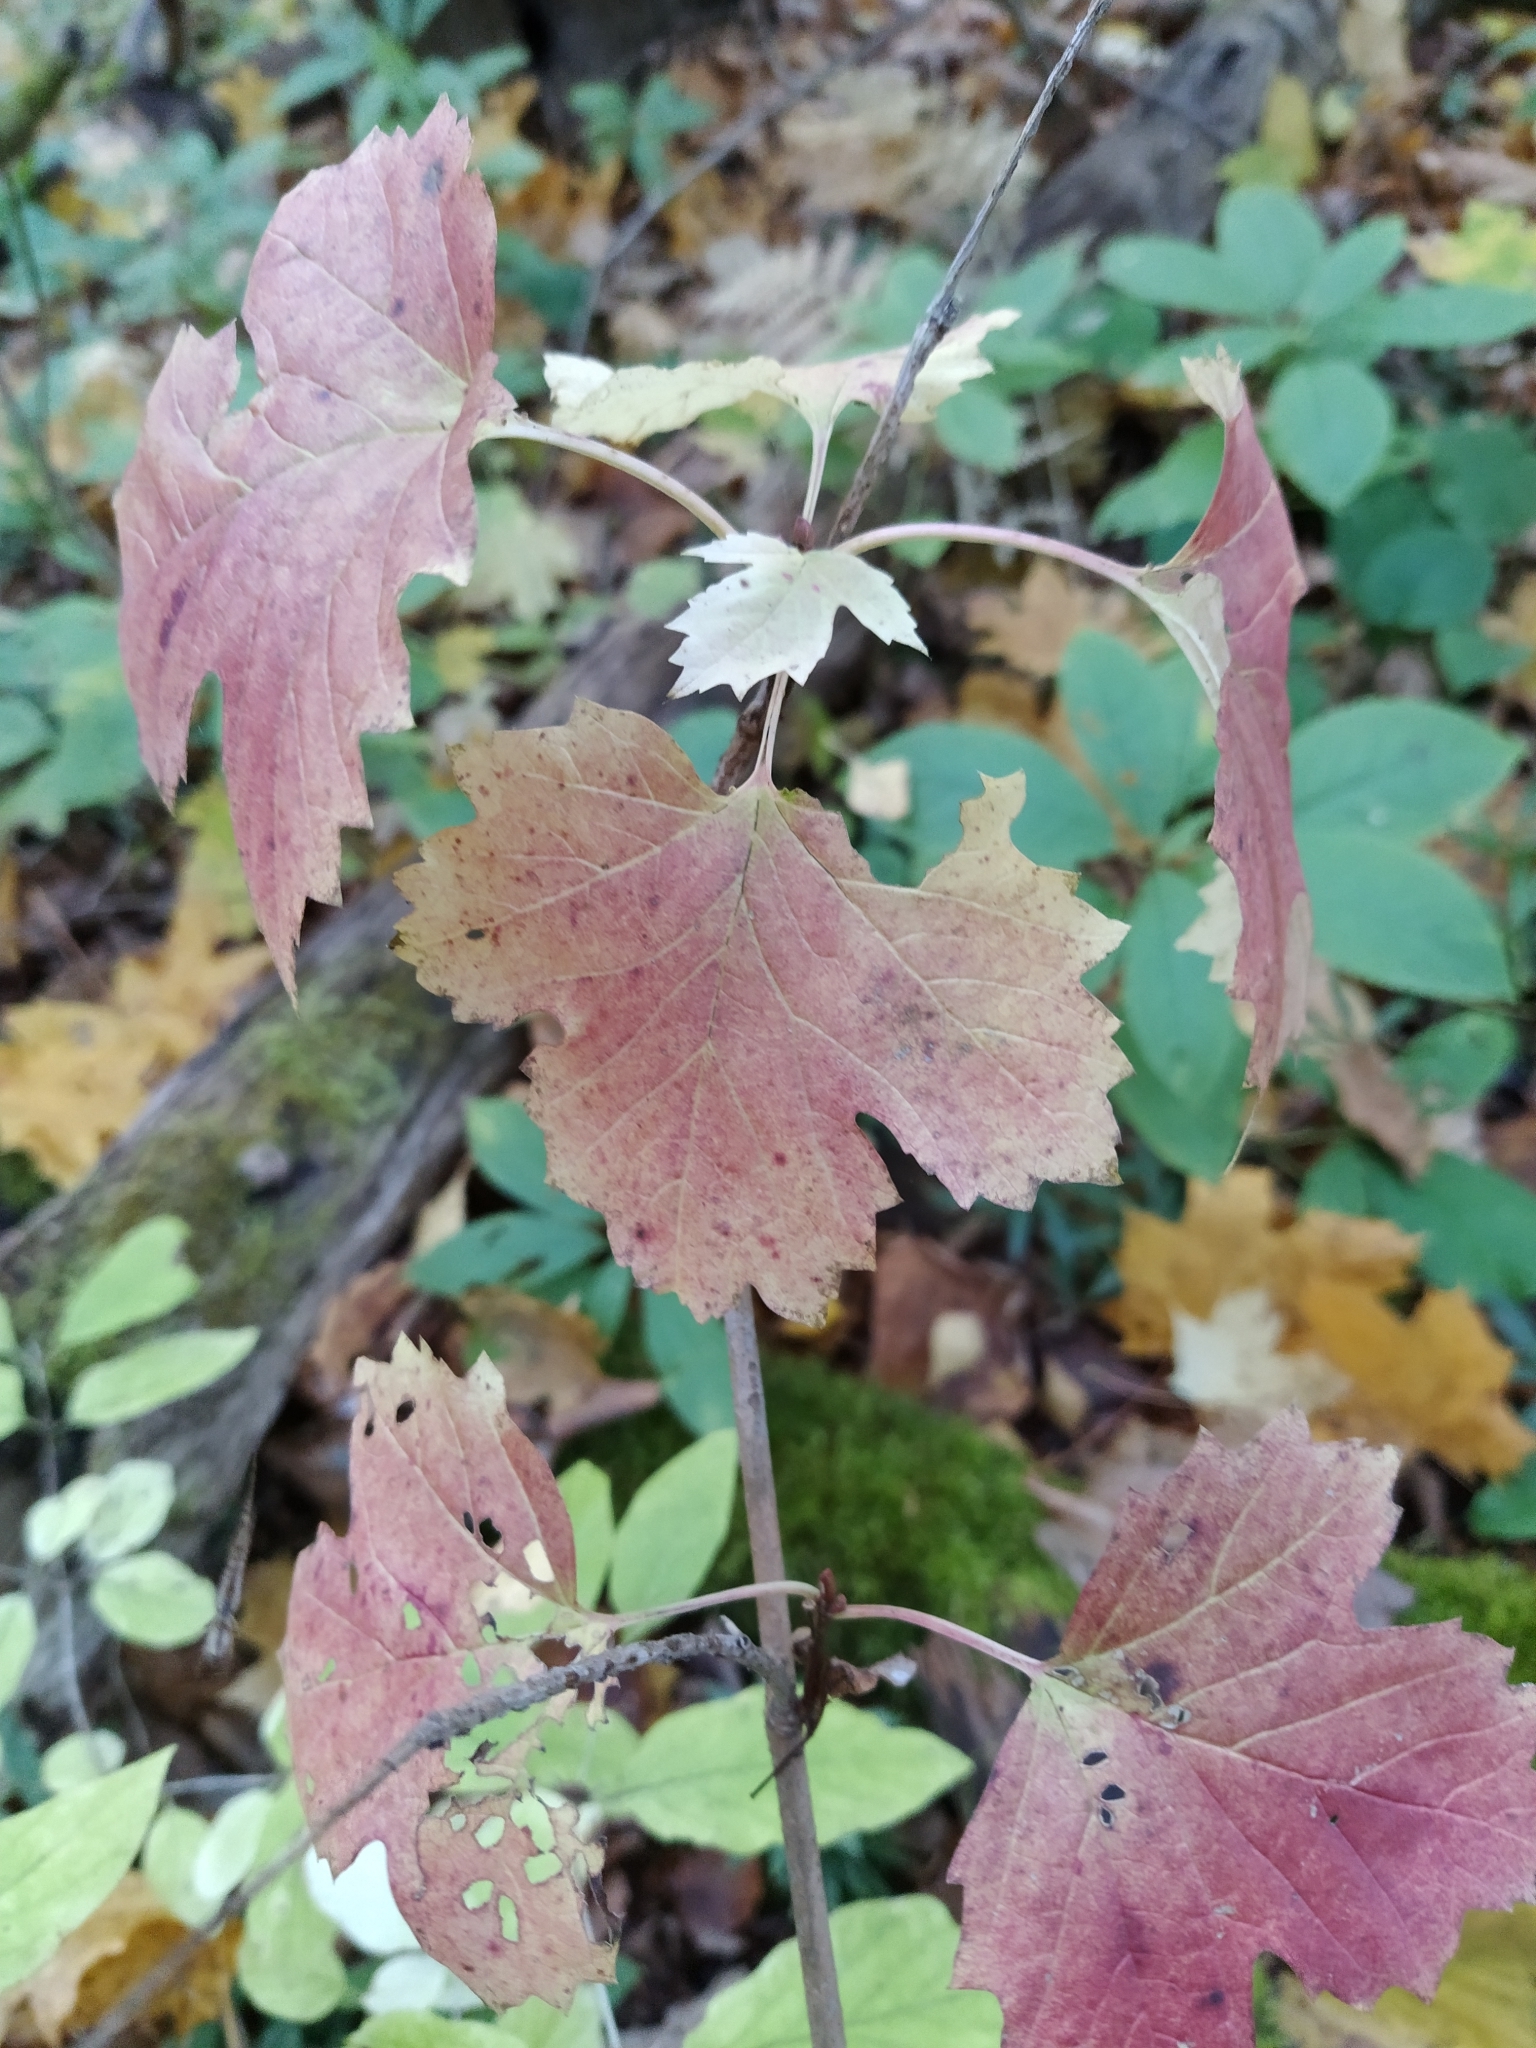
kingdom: Plantae
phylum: Tracheophyta
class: Magnoliopsida
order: Dipsacales
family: Viburnaceae
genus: Viburnum
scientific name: Viburnum opulus
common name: Guelder-rose
